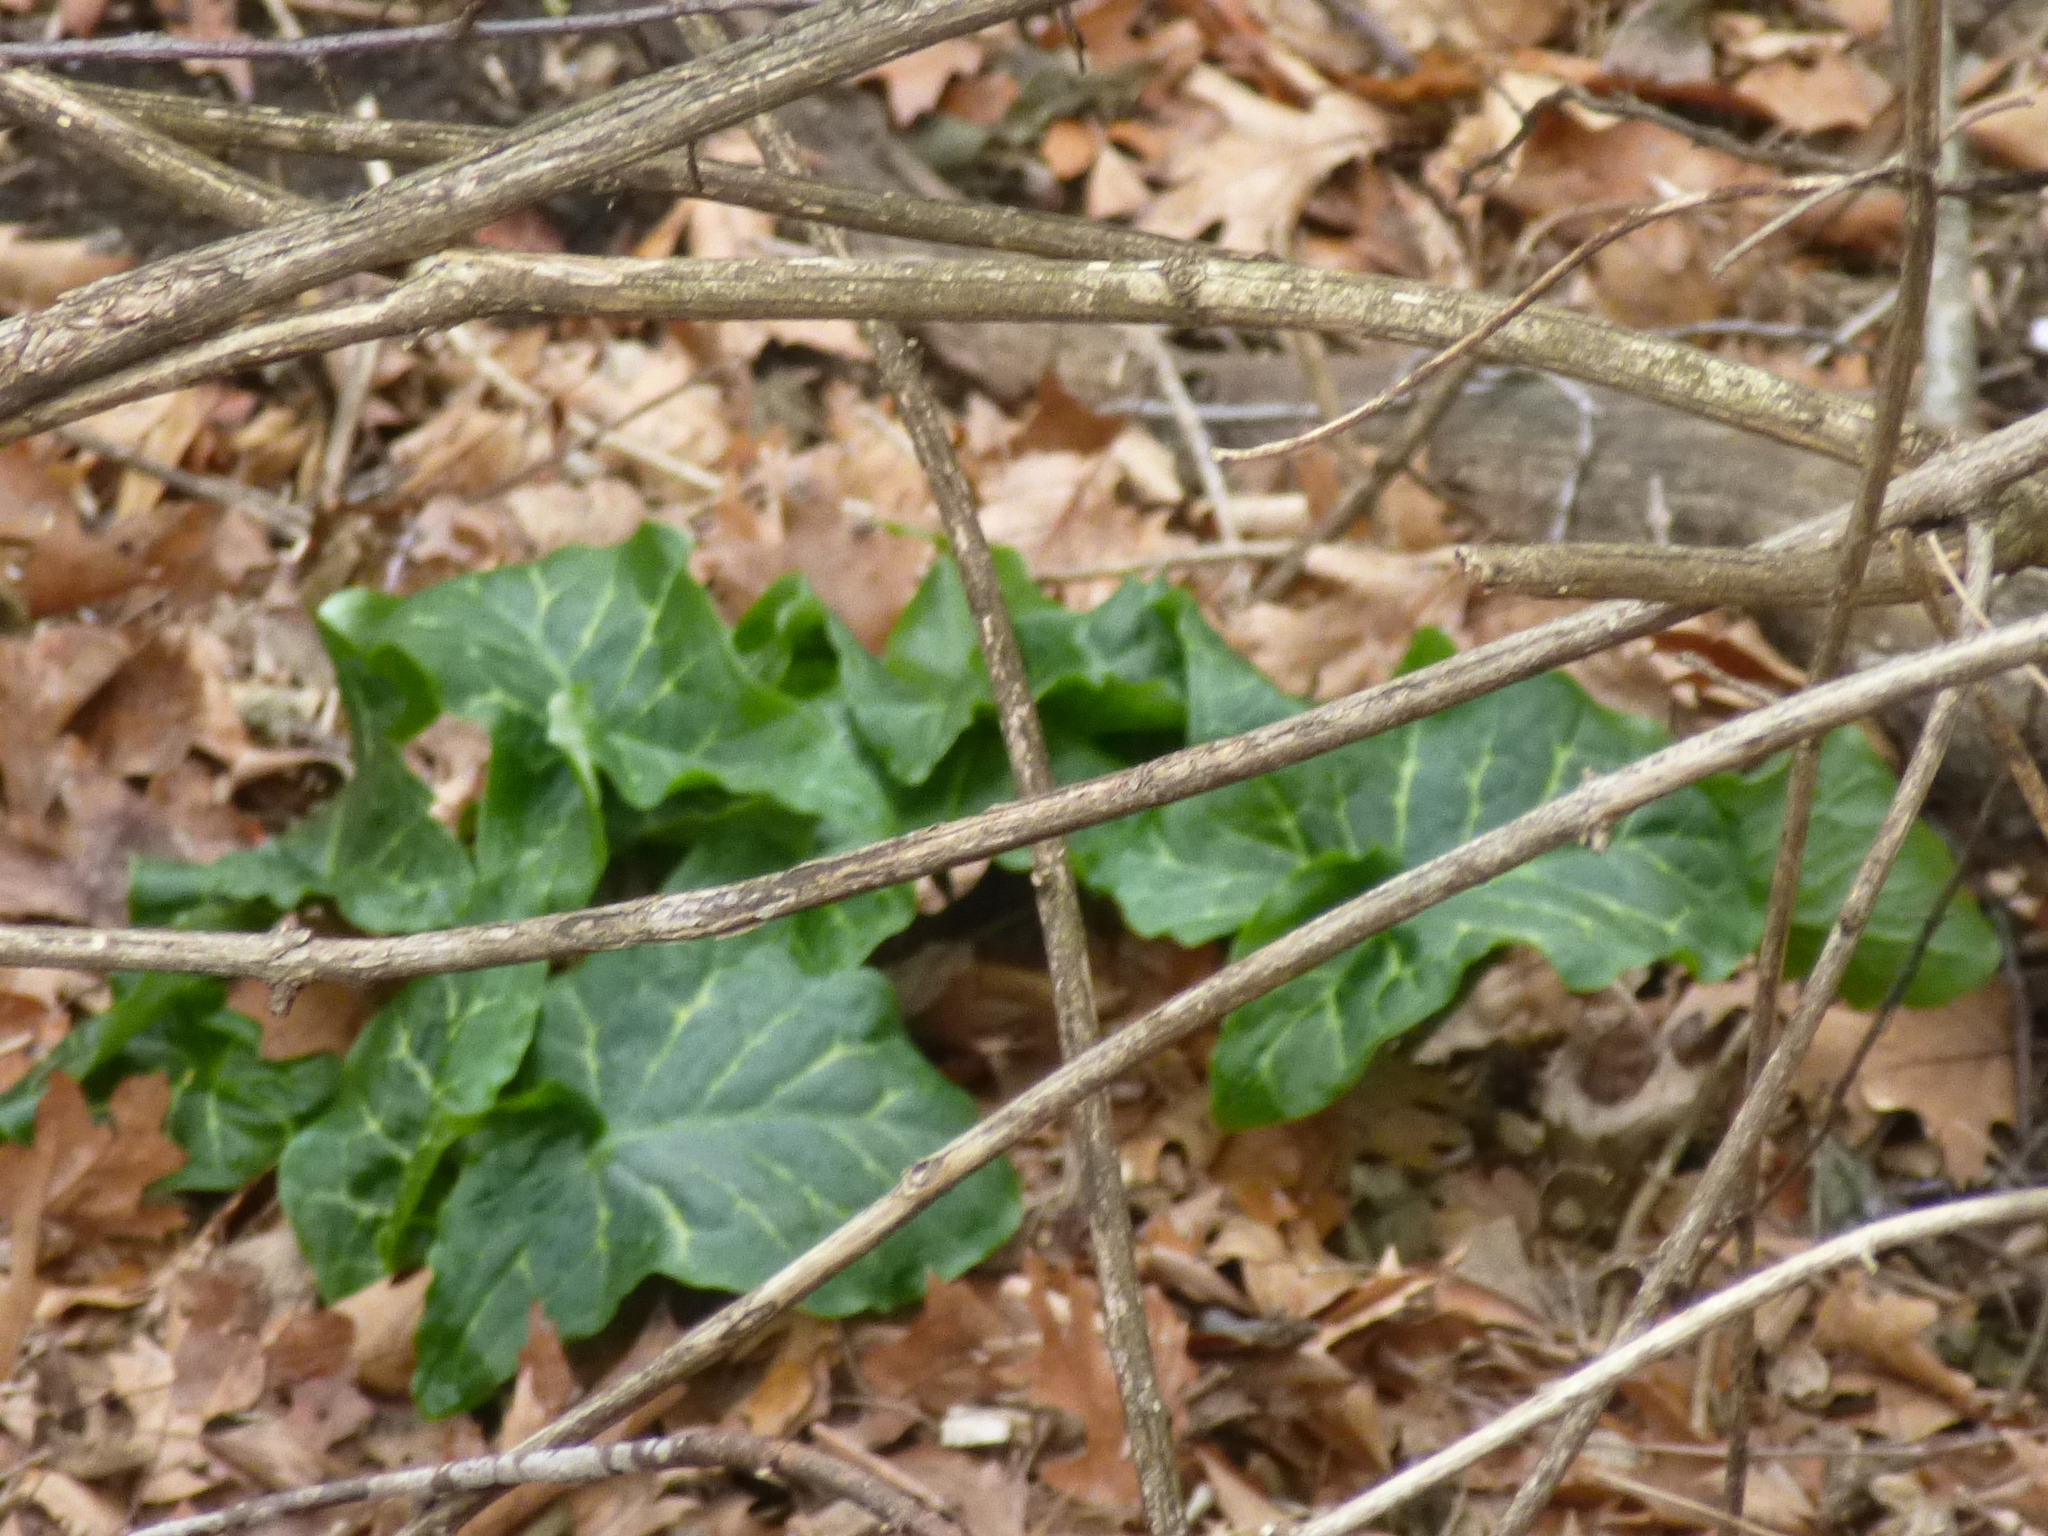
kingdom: Plantae
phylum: Tracheophyta
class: Liliopsida
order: Alismatales
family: Araceae
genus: Arum
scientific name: Arum italicum
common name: Italian lords-and-ladies
